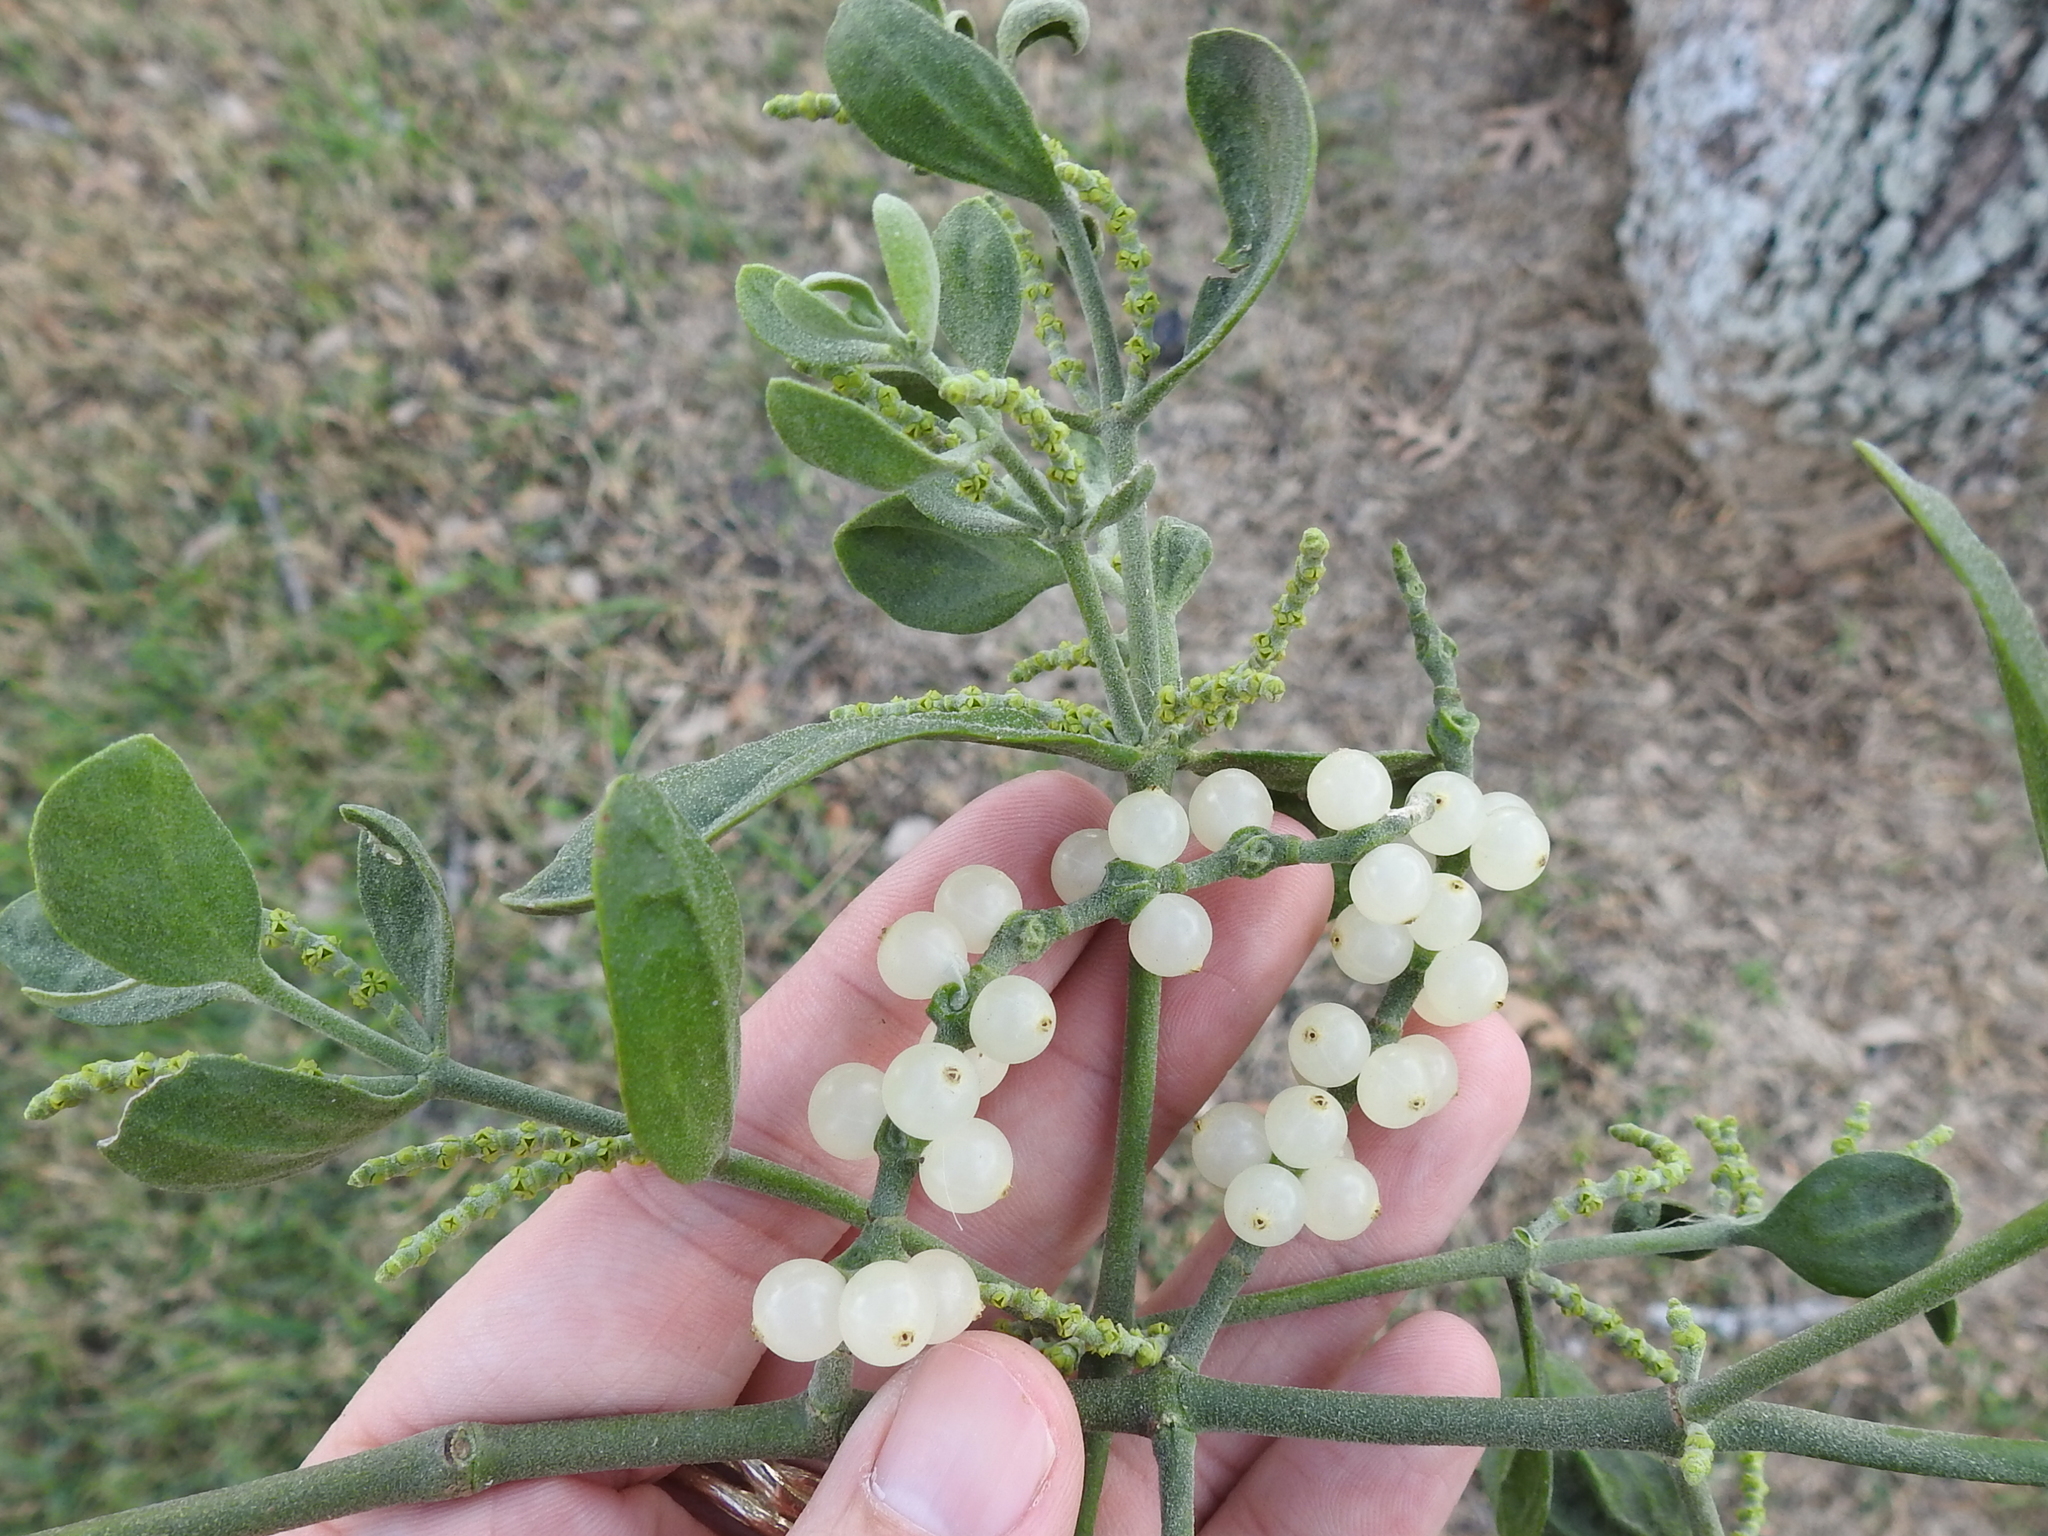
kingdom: Plantae
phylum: Tracheophyta
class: Magnoliopsida
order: Santalales
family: Viscaceae
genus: Phoradendron
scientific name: Phoradendron leucarpum
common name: Pacific mistletoe
